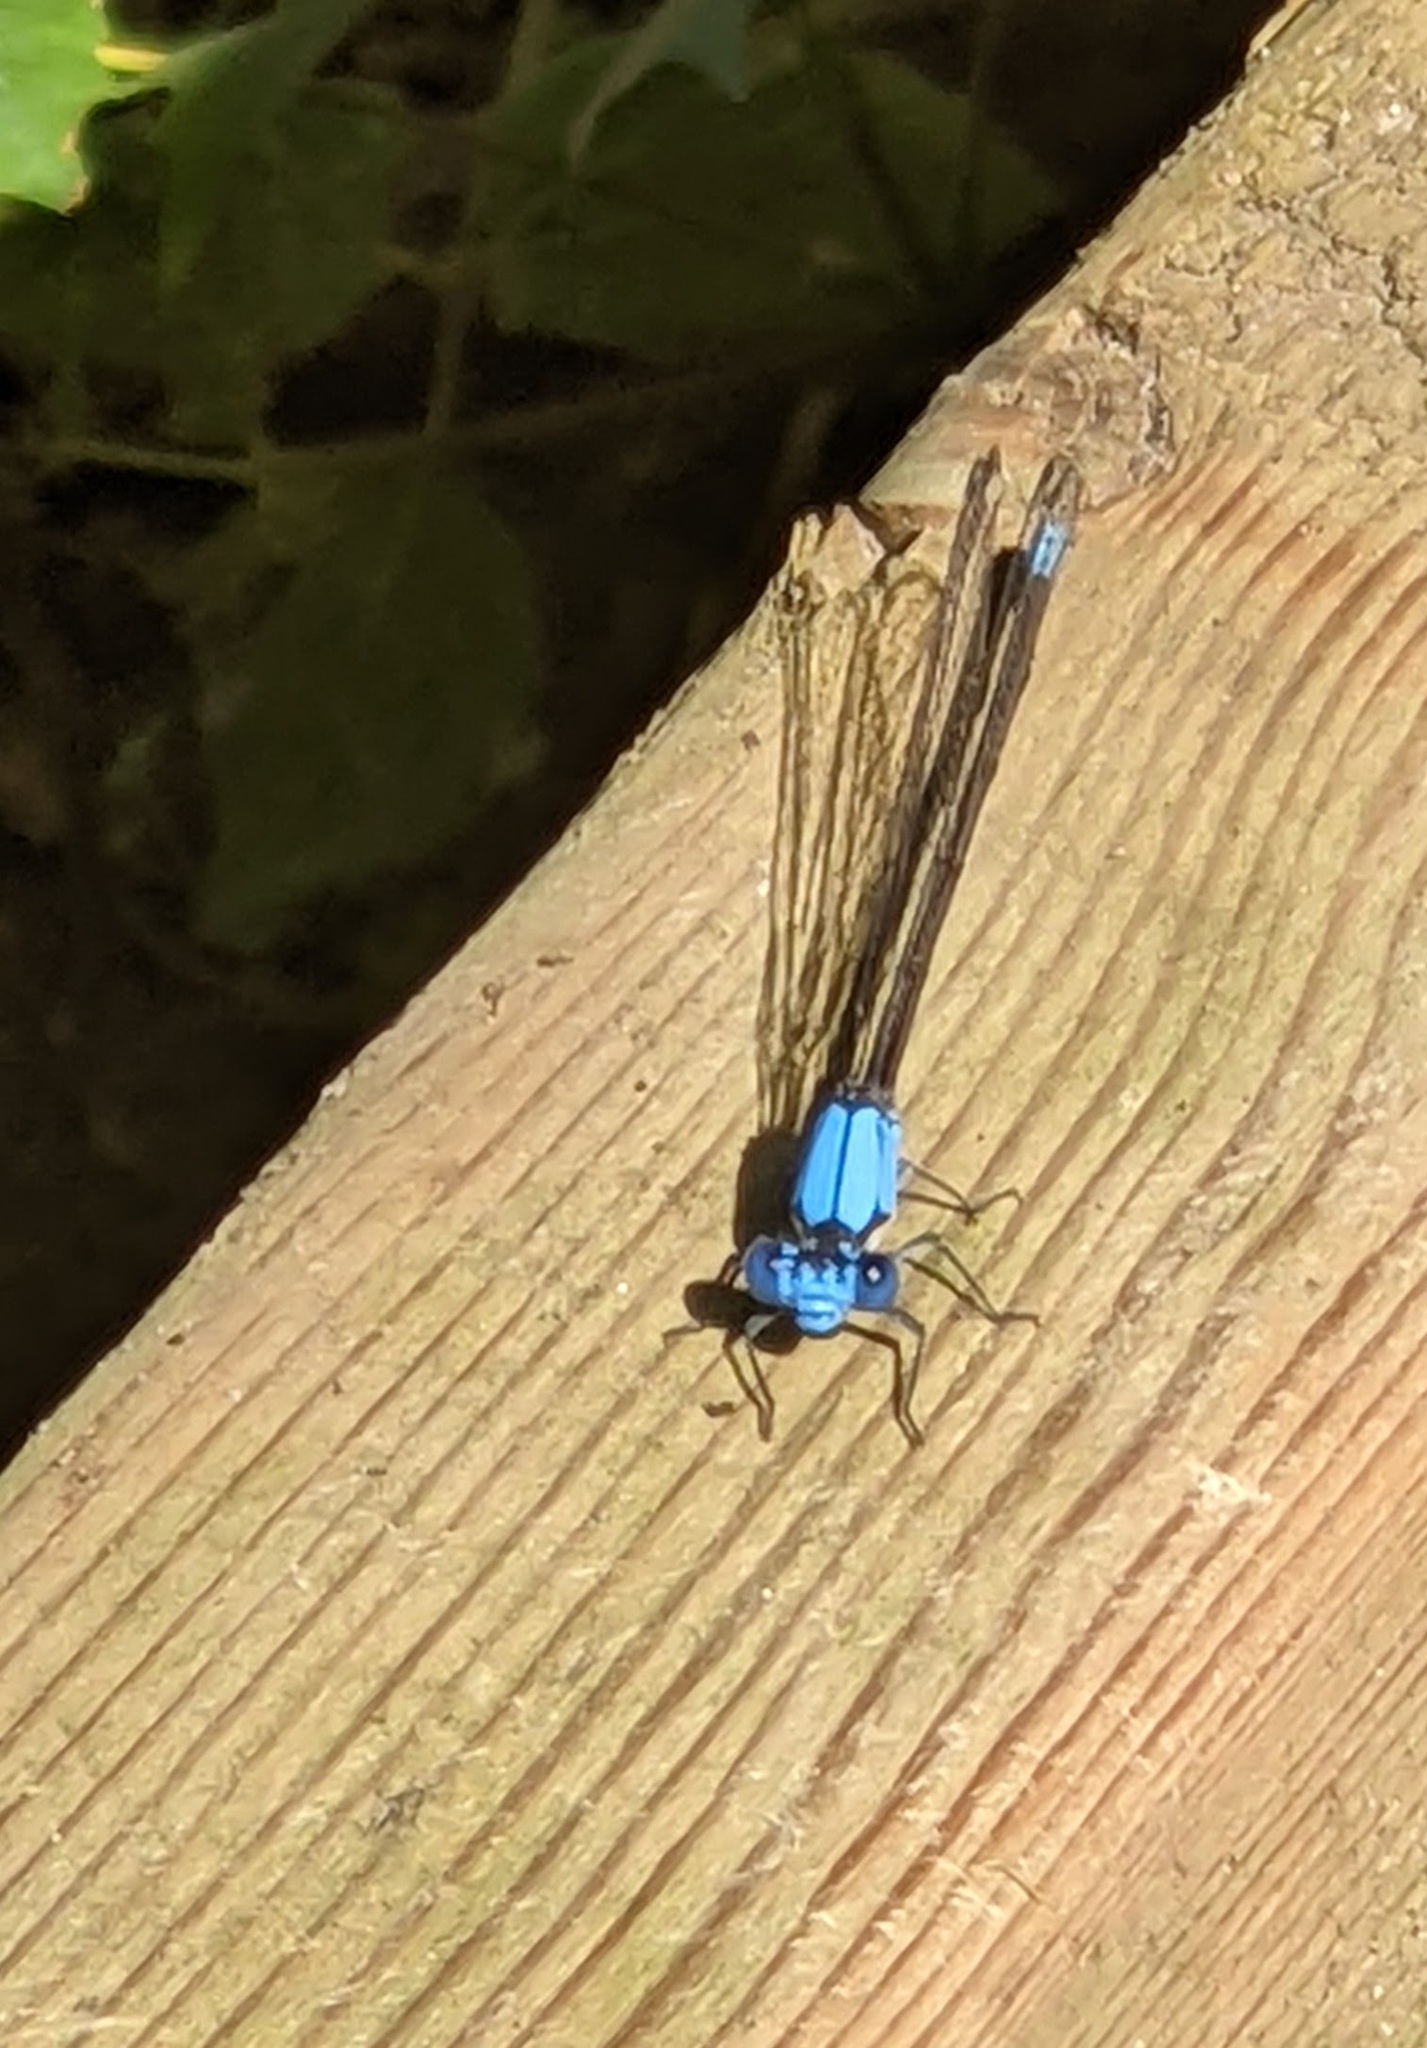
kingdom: Animalia
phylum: Arthropoda
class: Insecta
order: Odonata
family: Coenagrionidae
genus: Argia
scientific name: Argia apicalis
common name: Blue-fronted dancer
